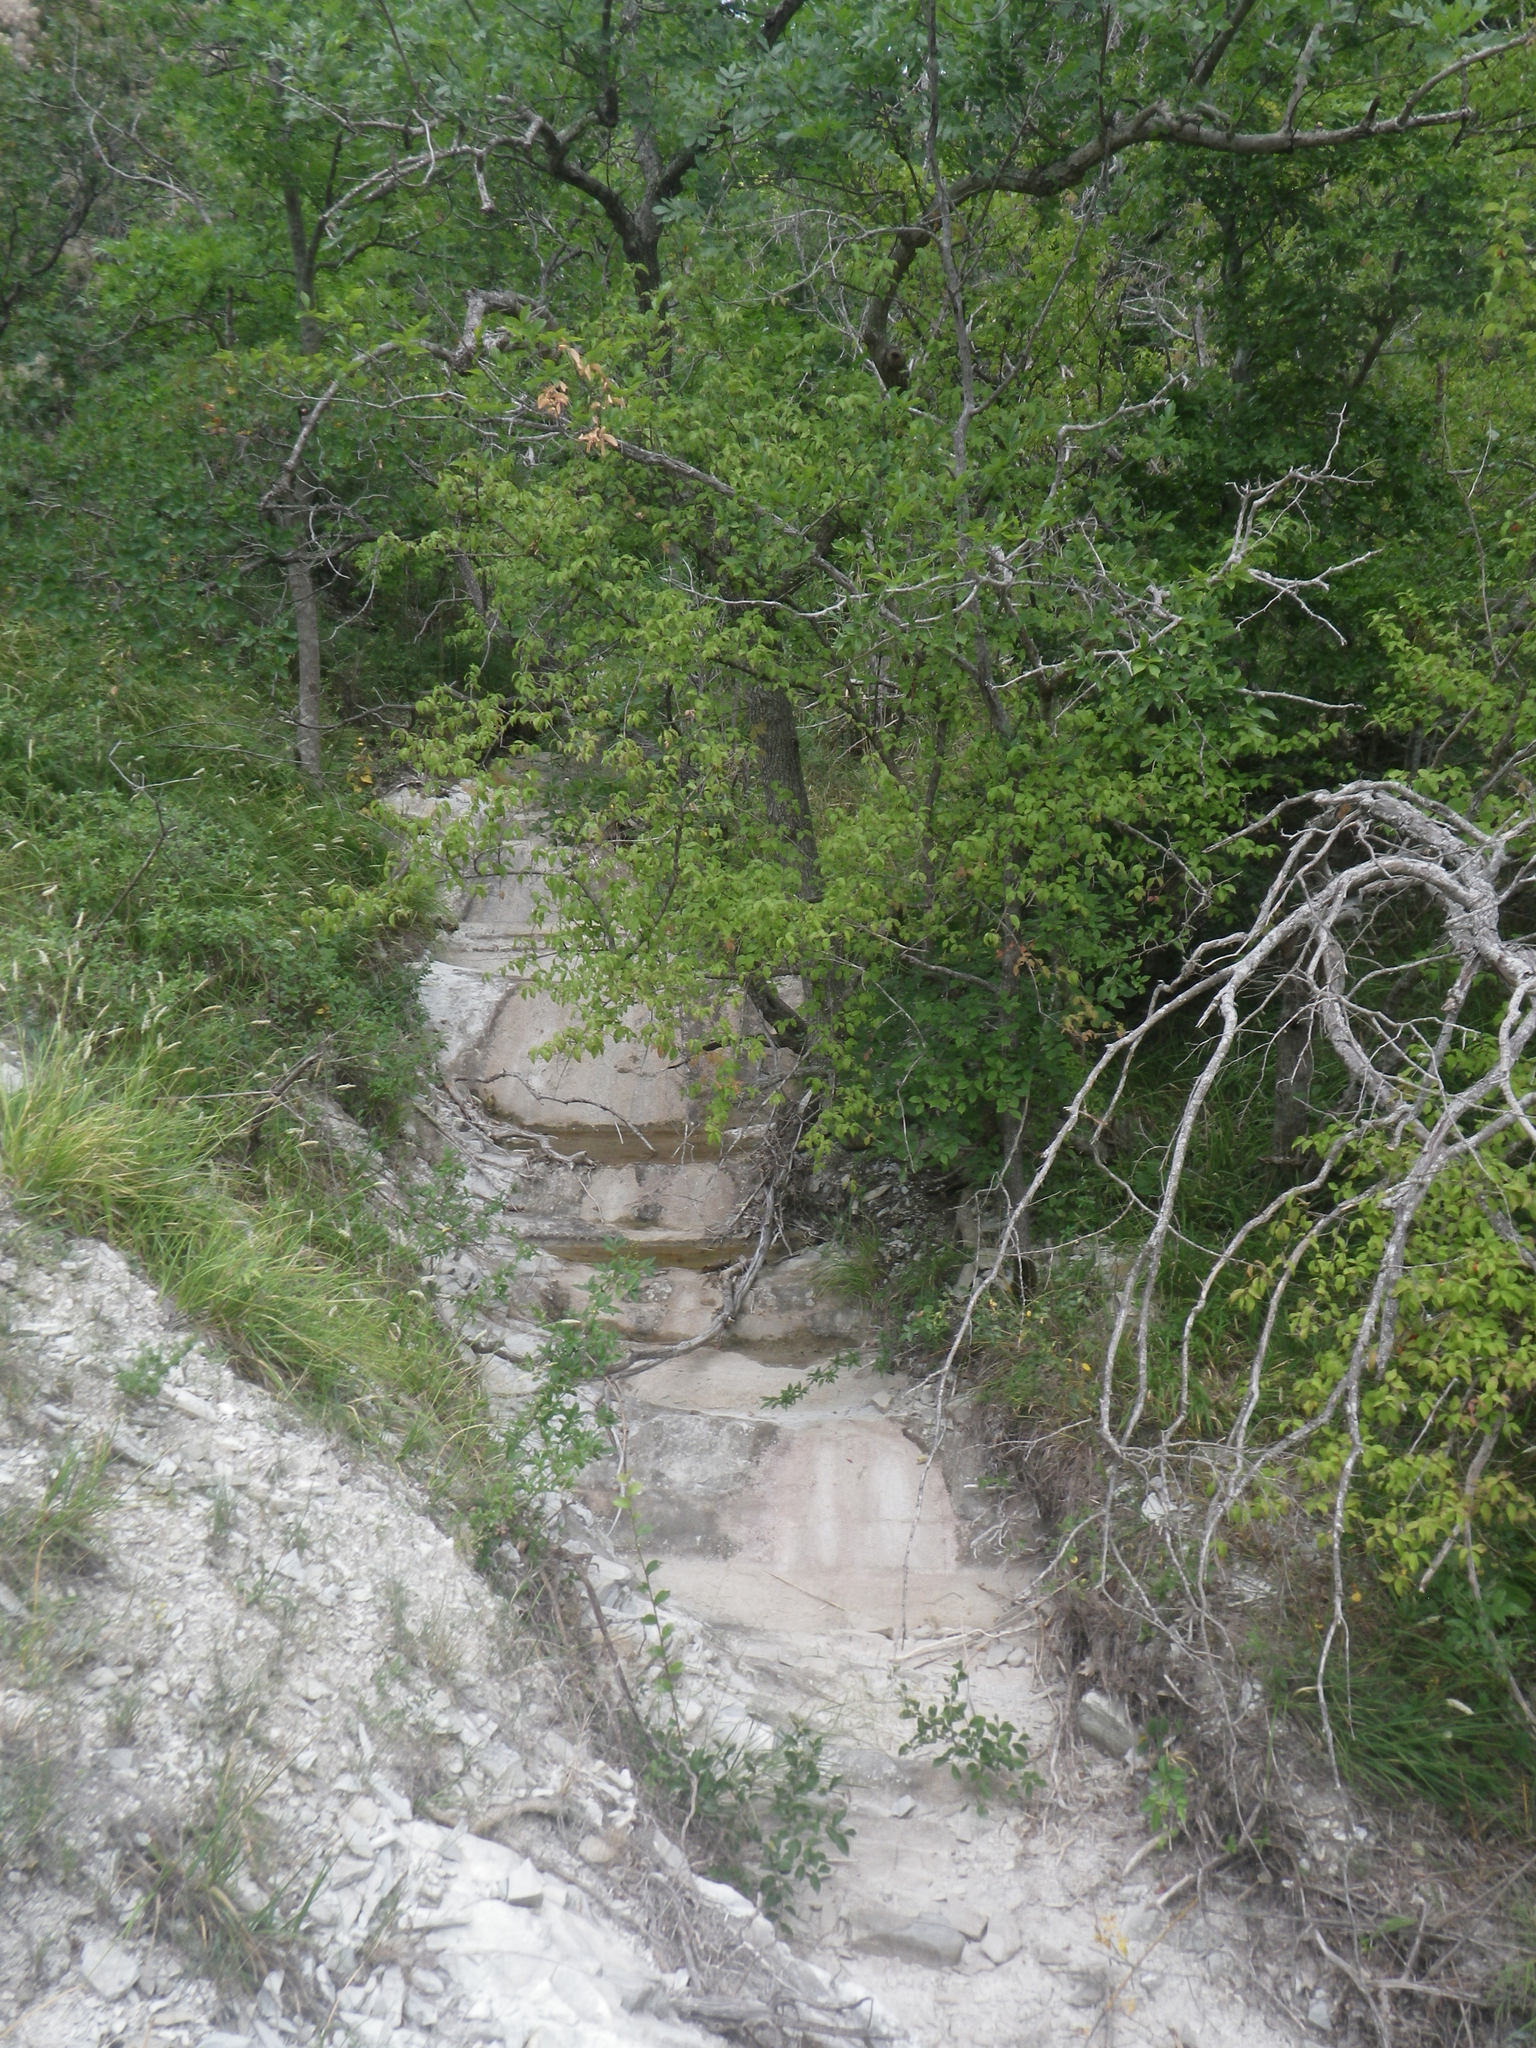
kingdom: Plantae
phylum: Tracheophyta
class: Magnoliopsida
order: Cornales
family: Cornaceae
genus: Cornus
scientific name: Cornus mas
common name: Cornelian-cherry
